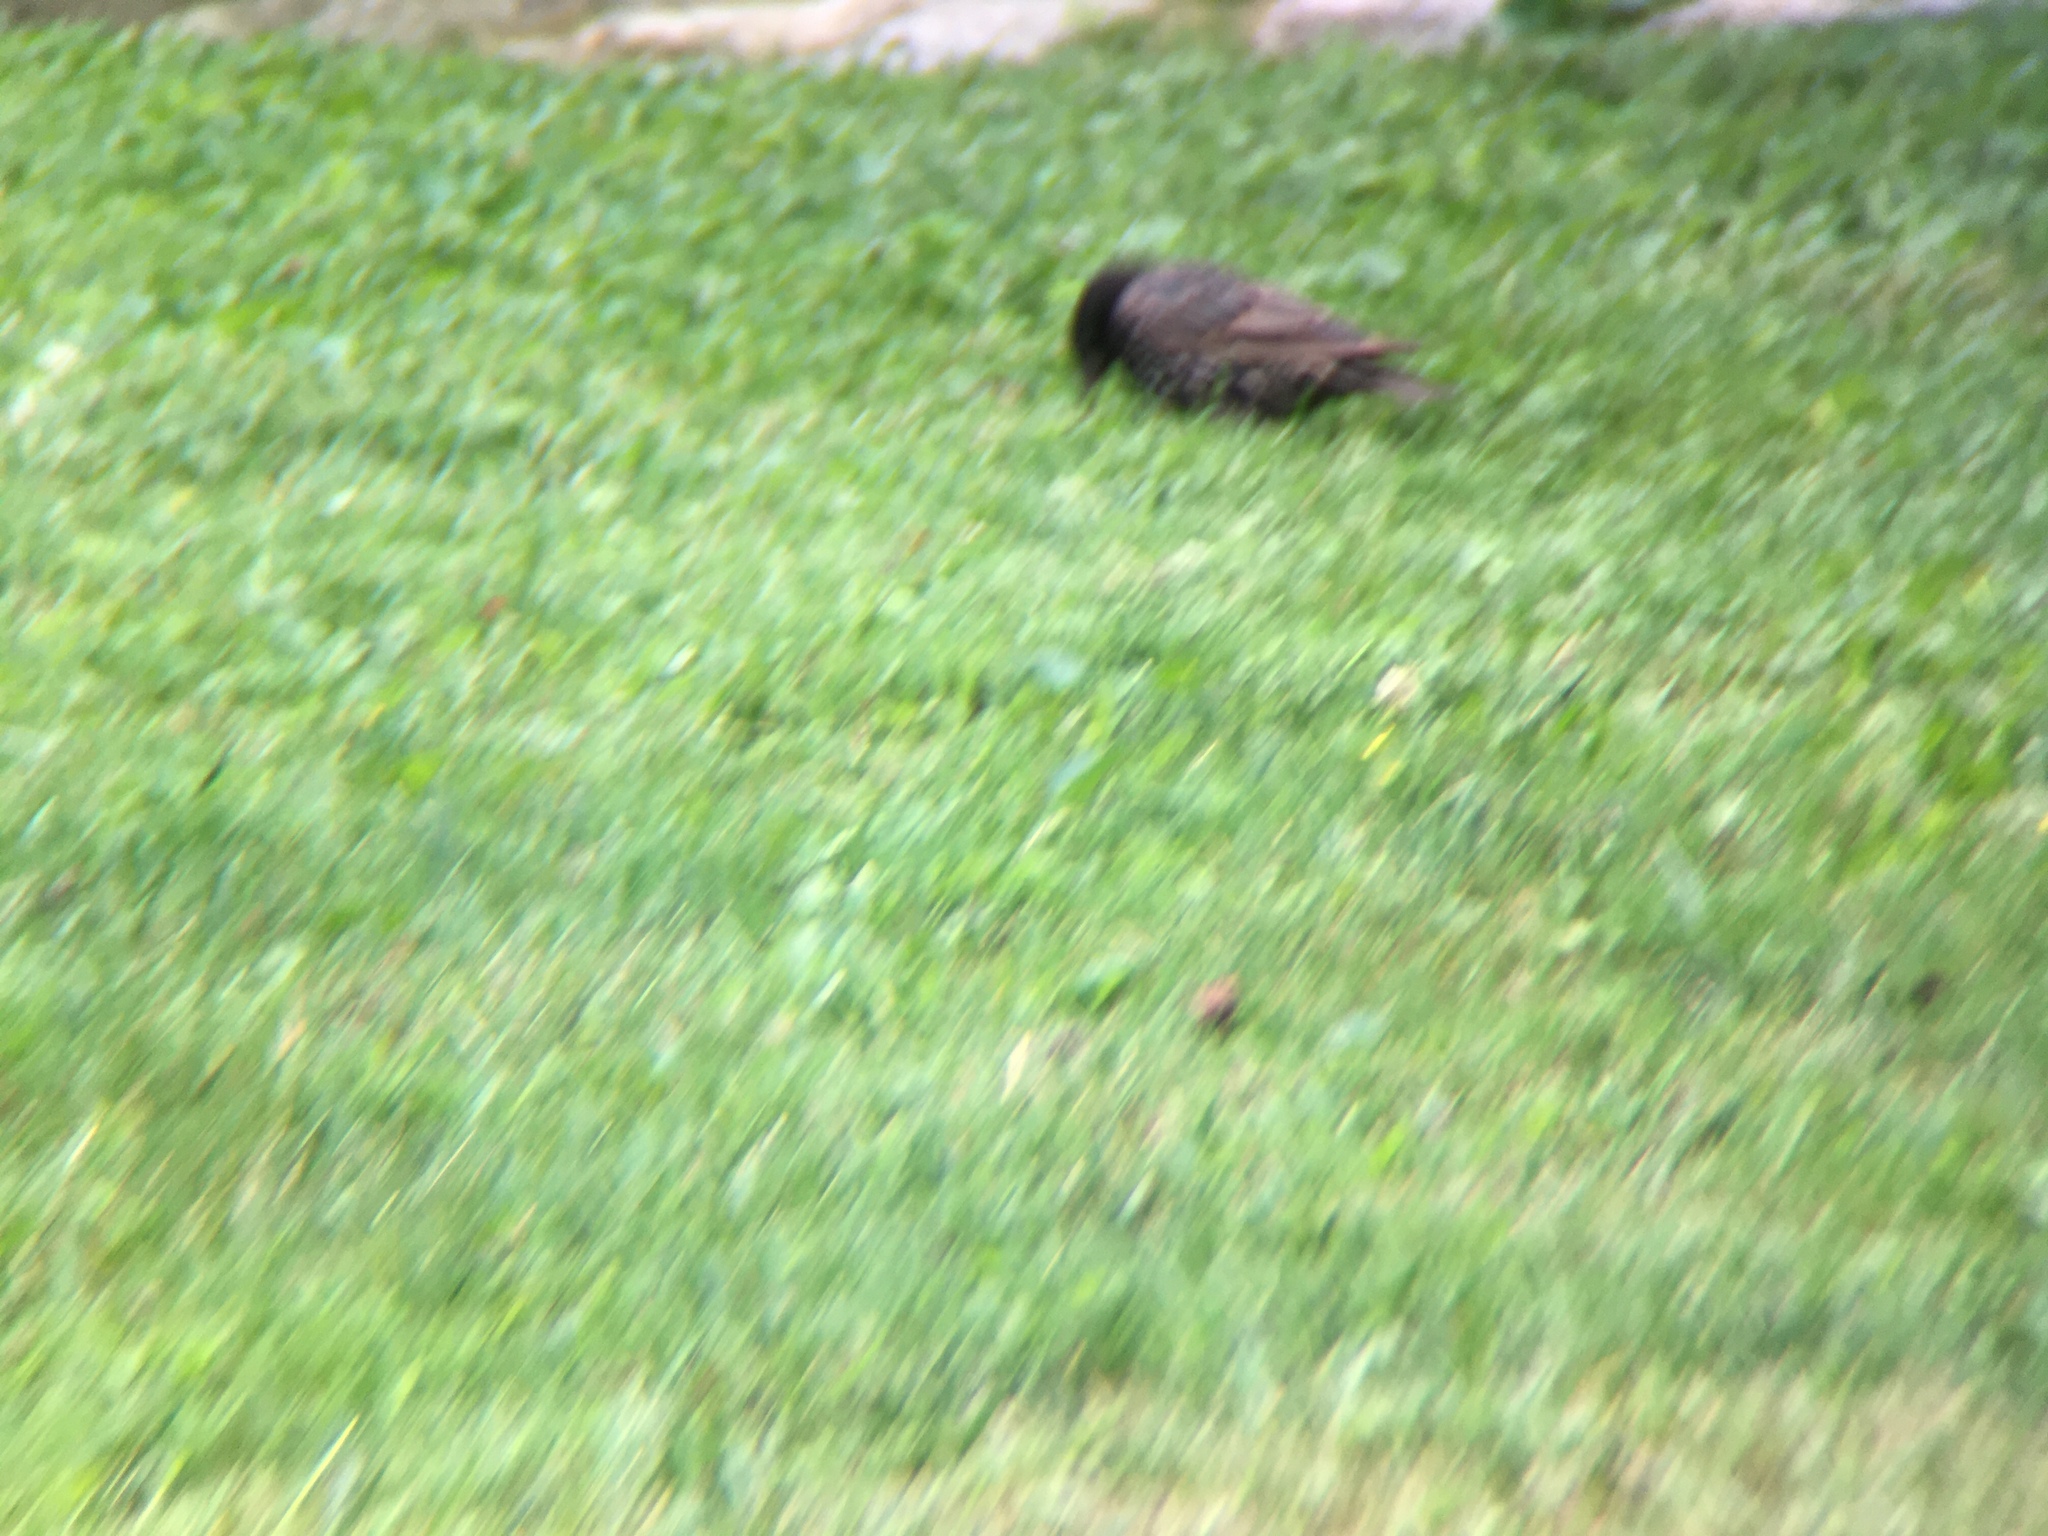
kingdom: Animalia
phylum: Chordata
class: Aves
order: Passeriformes
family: Sturnidae
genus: Sturnus
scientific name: Sturnus vulgaris
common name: Common starling
